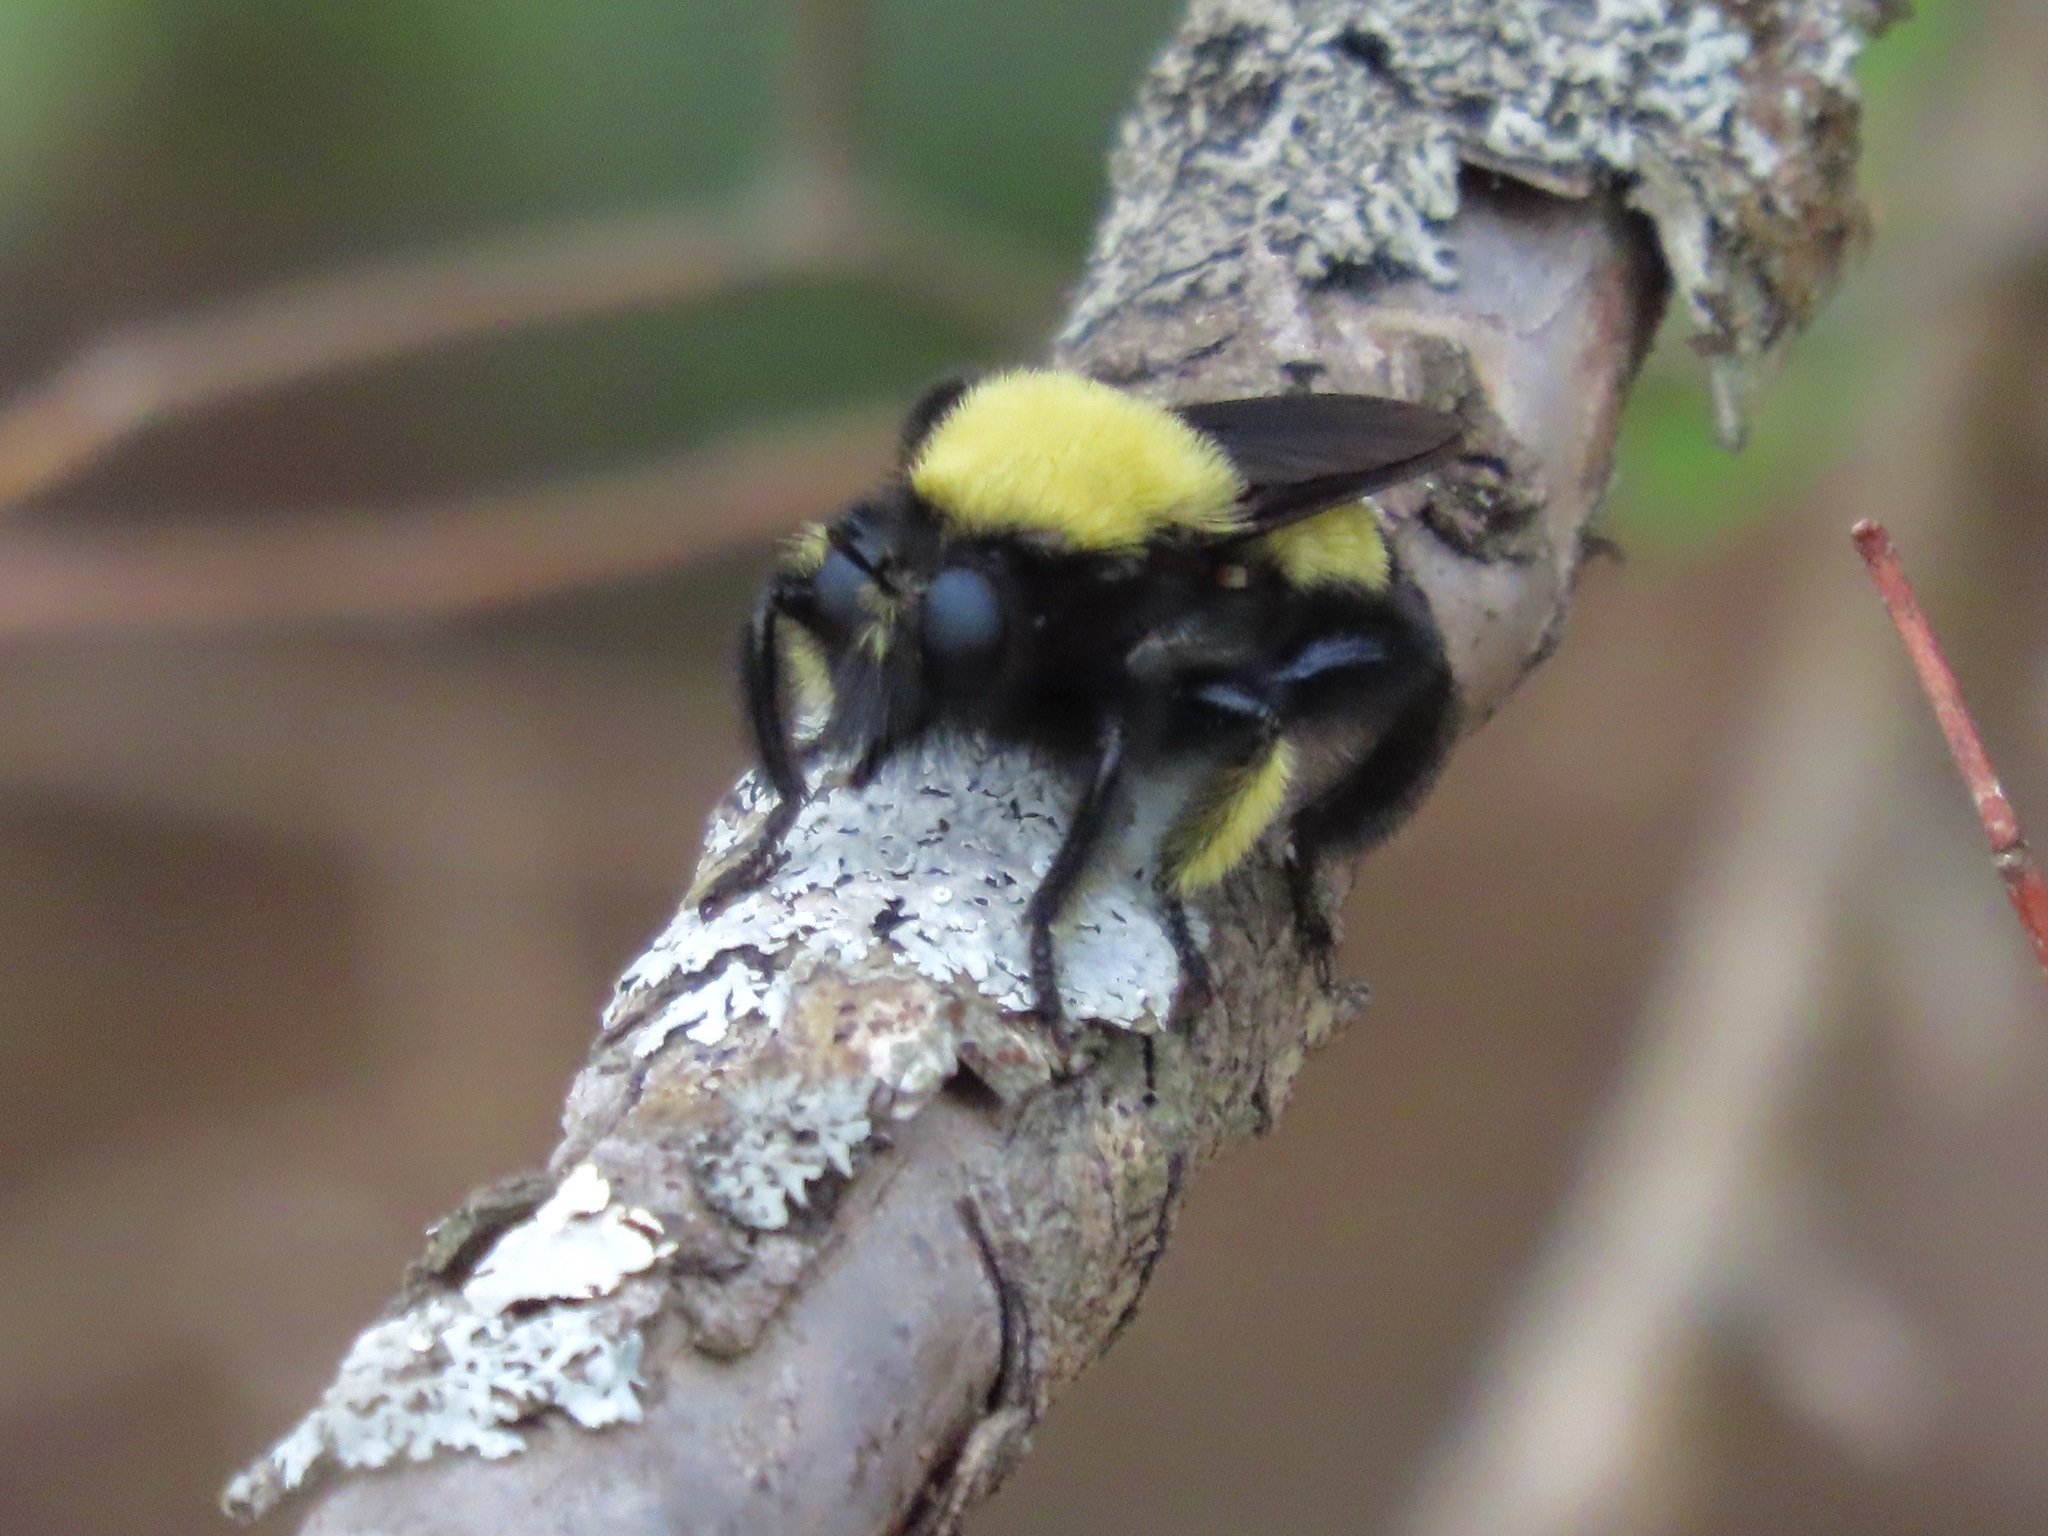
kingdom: Animalia
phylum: Arthropoda
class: Insecta
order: Diptera
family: Asilidae
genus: Laphria
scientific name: Laphria macquarti
